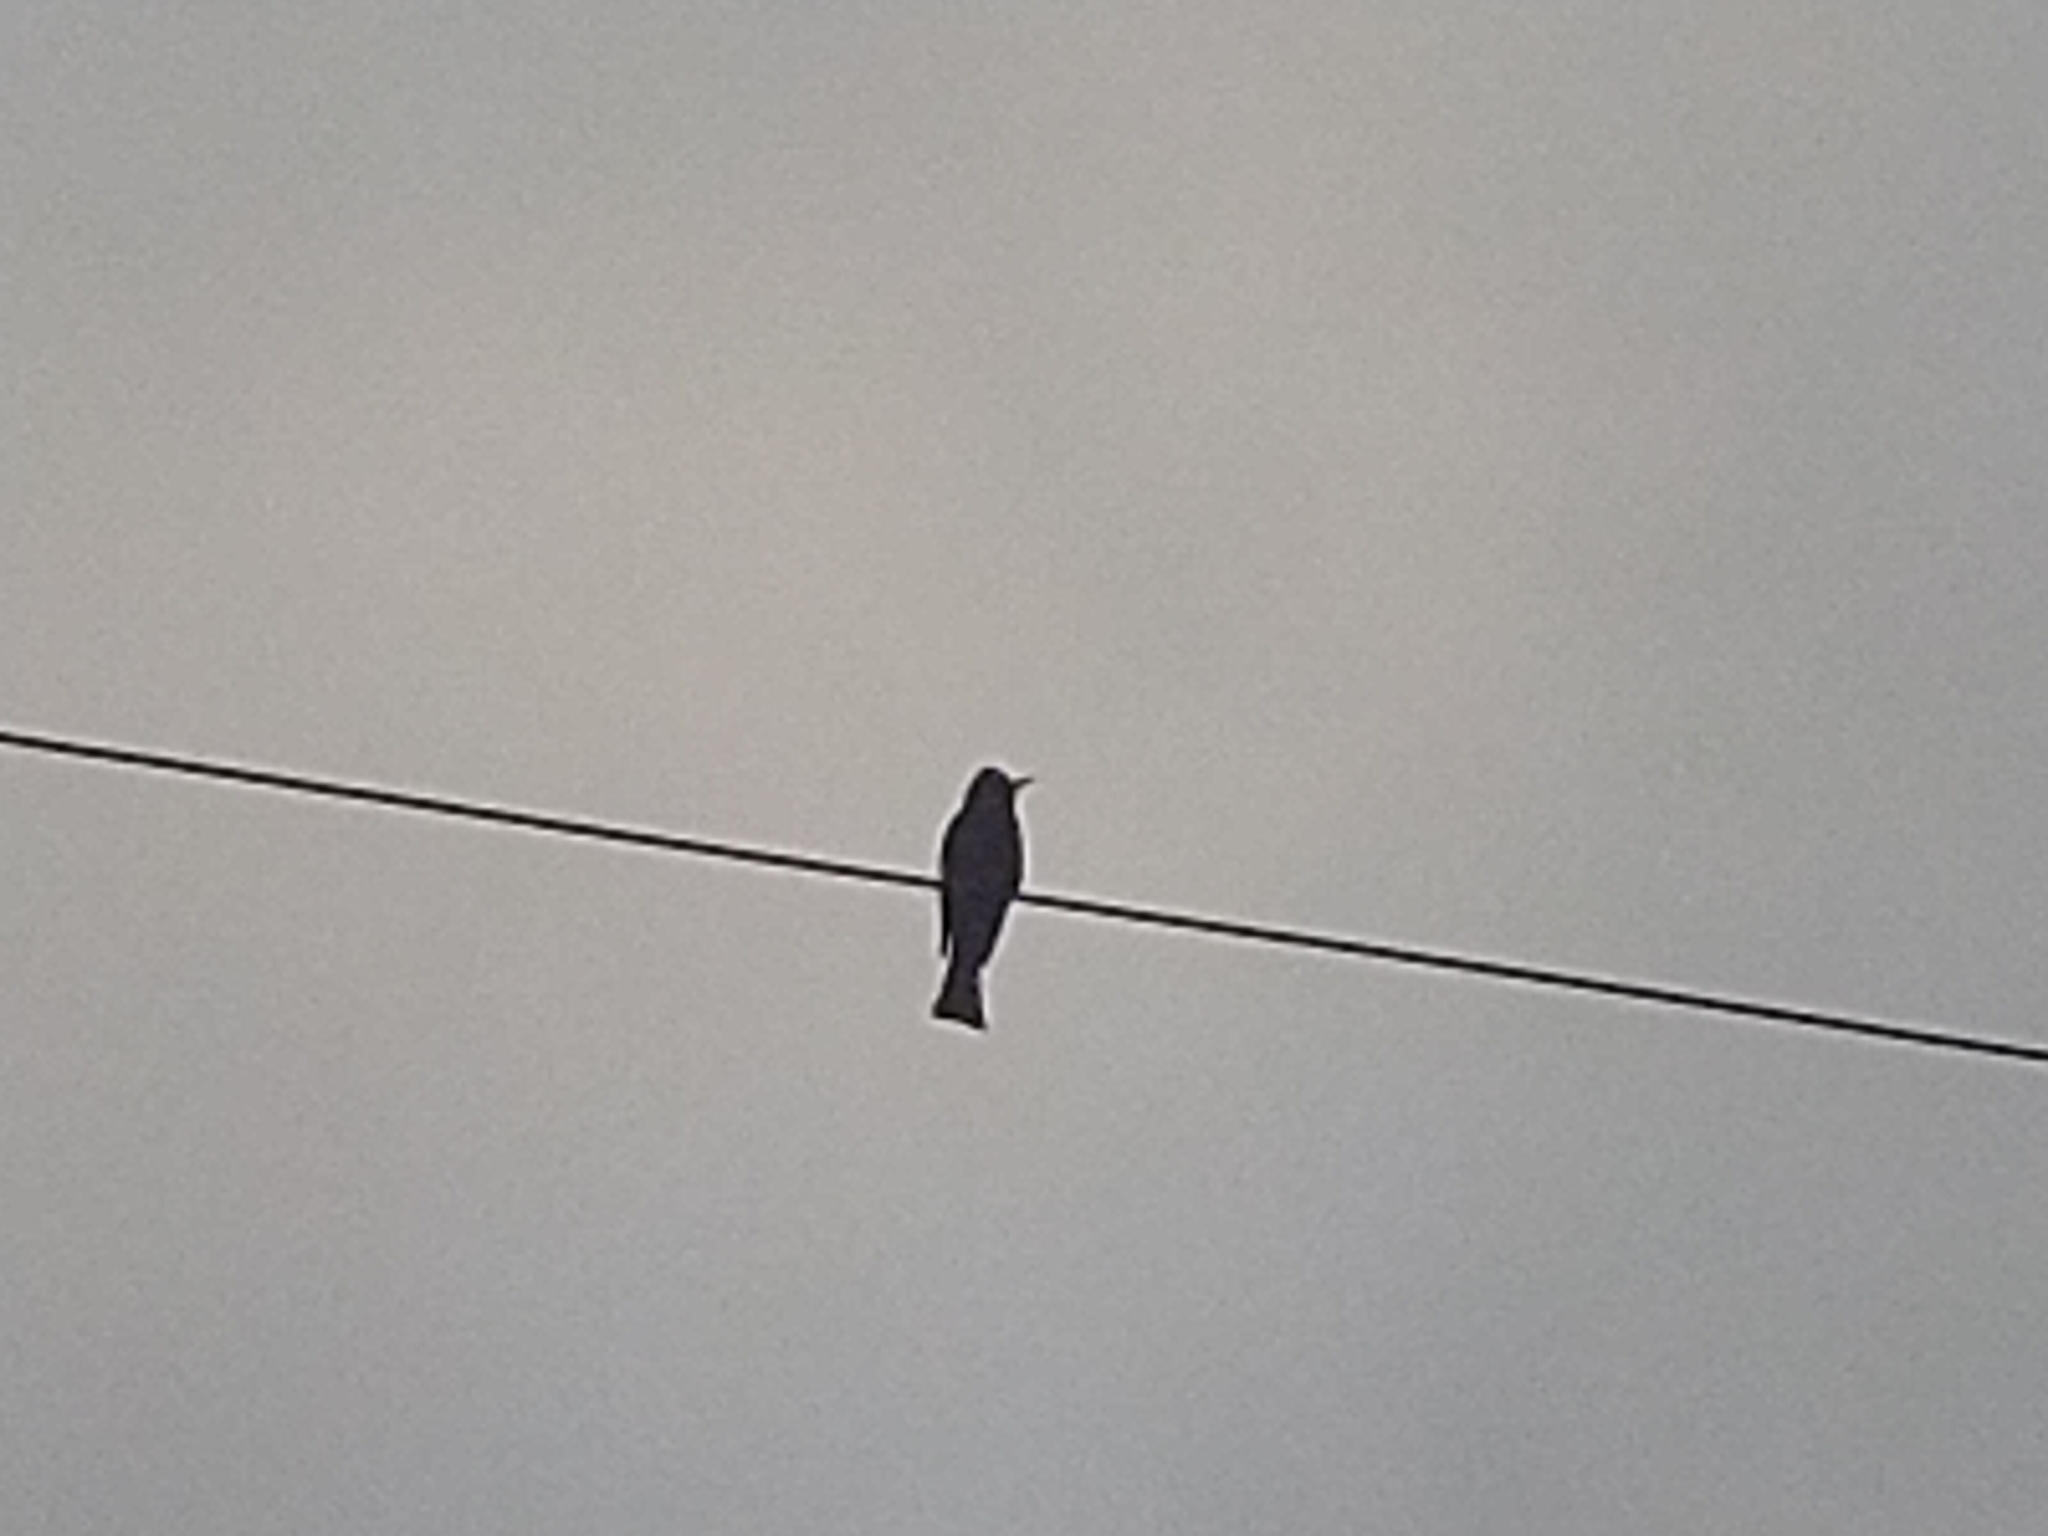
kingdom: Animalia
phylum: Chordata
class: Aves
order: Passeriformes
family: Pycnonotidae
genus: Hypsipetes
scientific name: Hypsipetes leucocephalus
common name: Black bulbul
